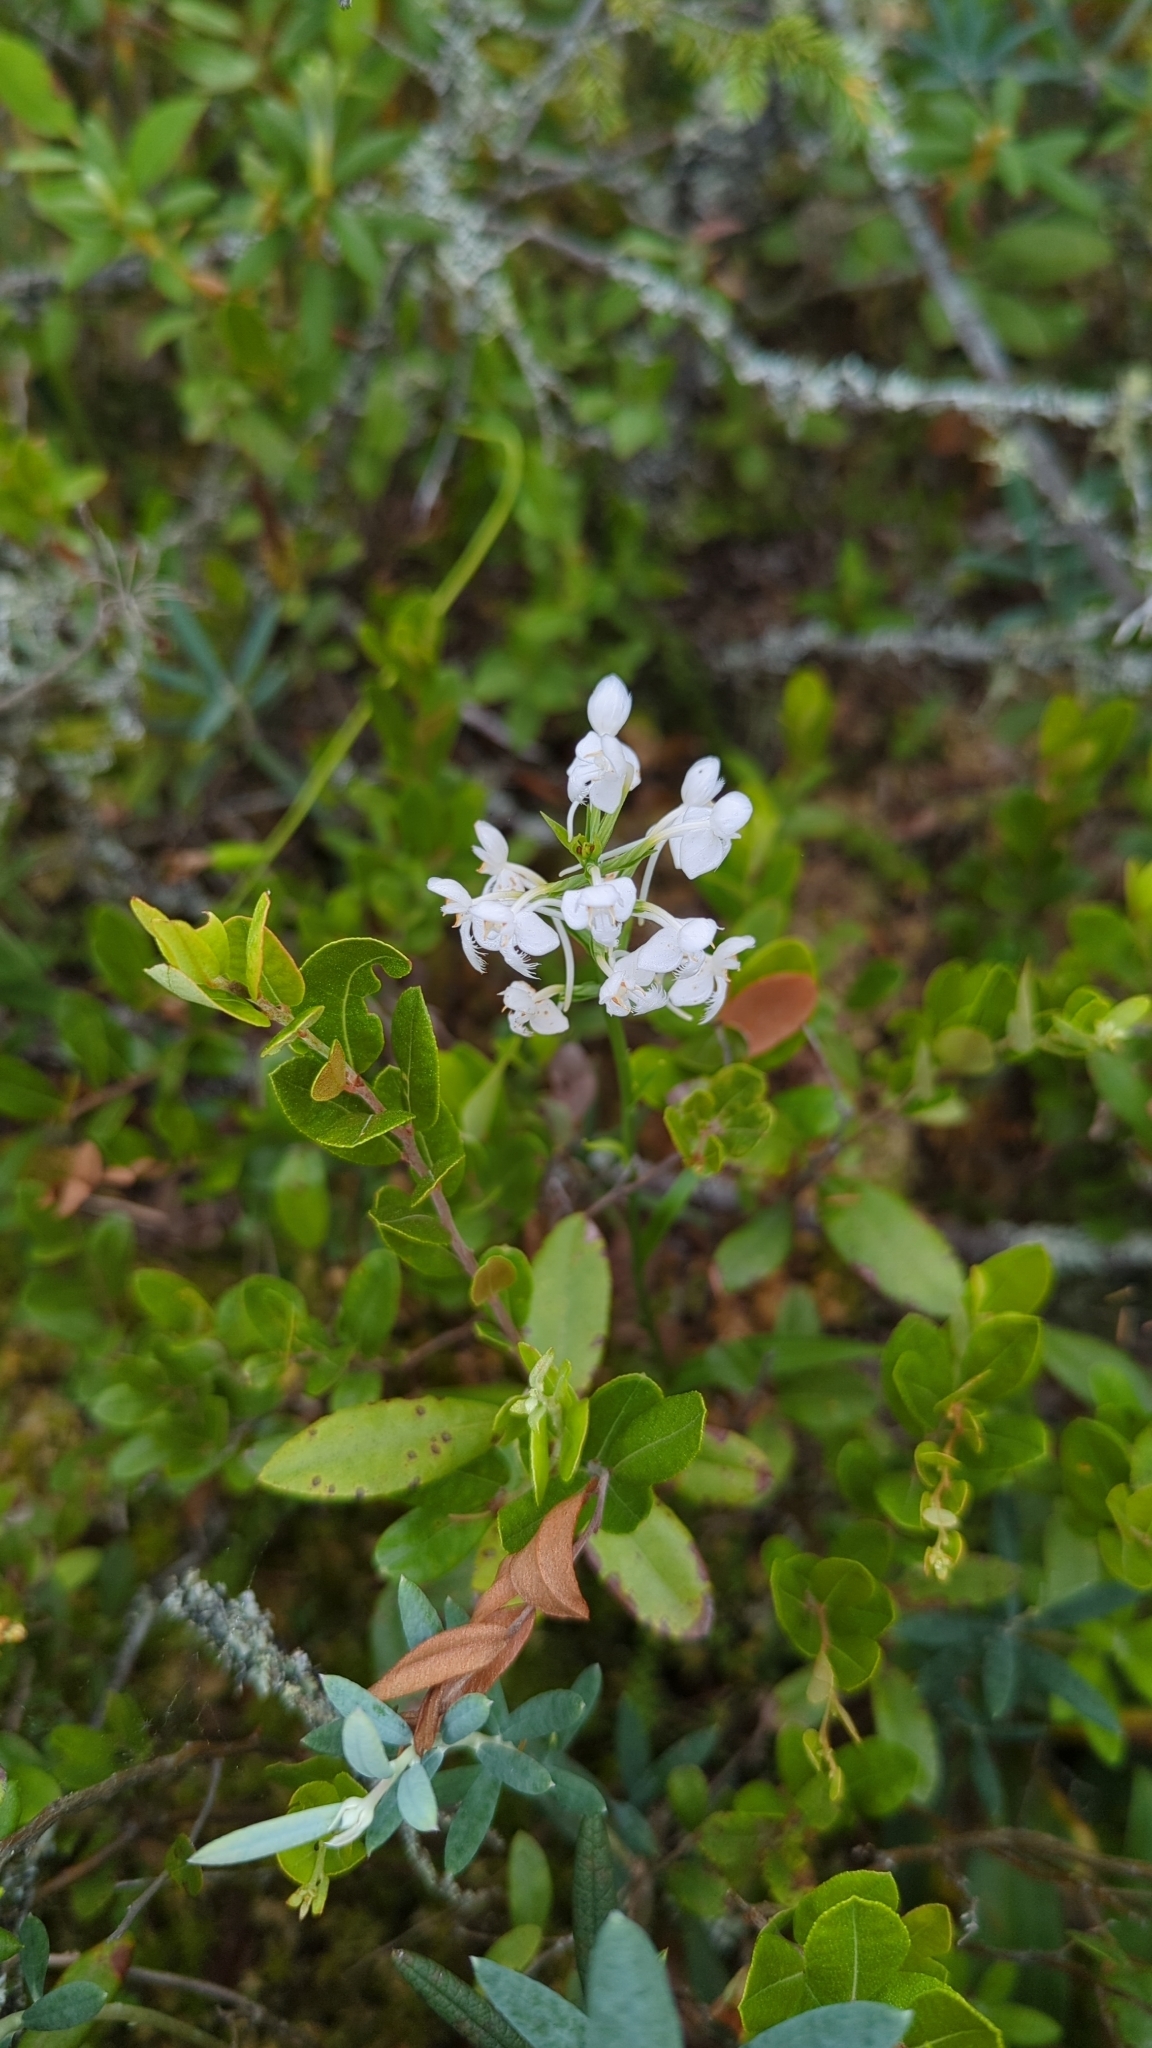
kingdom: Plantae
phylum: Tracheophyta
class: Liliopsida
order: Asparagales
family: Orchidaceae
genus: Platanthera
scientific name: Platanthera blephariglottis
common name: White fringed orchid
